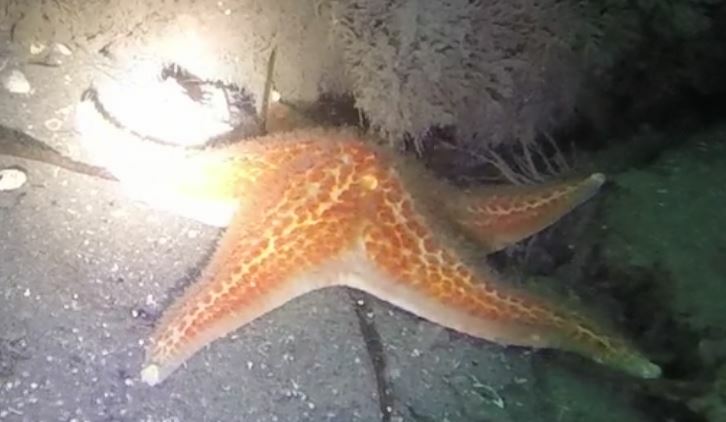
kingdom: Animalia
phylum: Echinodermata
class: Asteroidea
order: Valvatida
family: Asteropseidae
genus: Dermasterias
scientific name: Dermasterias imbricata
